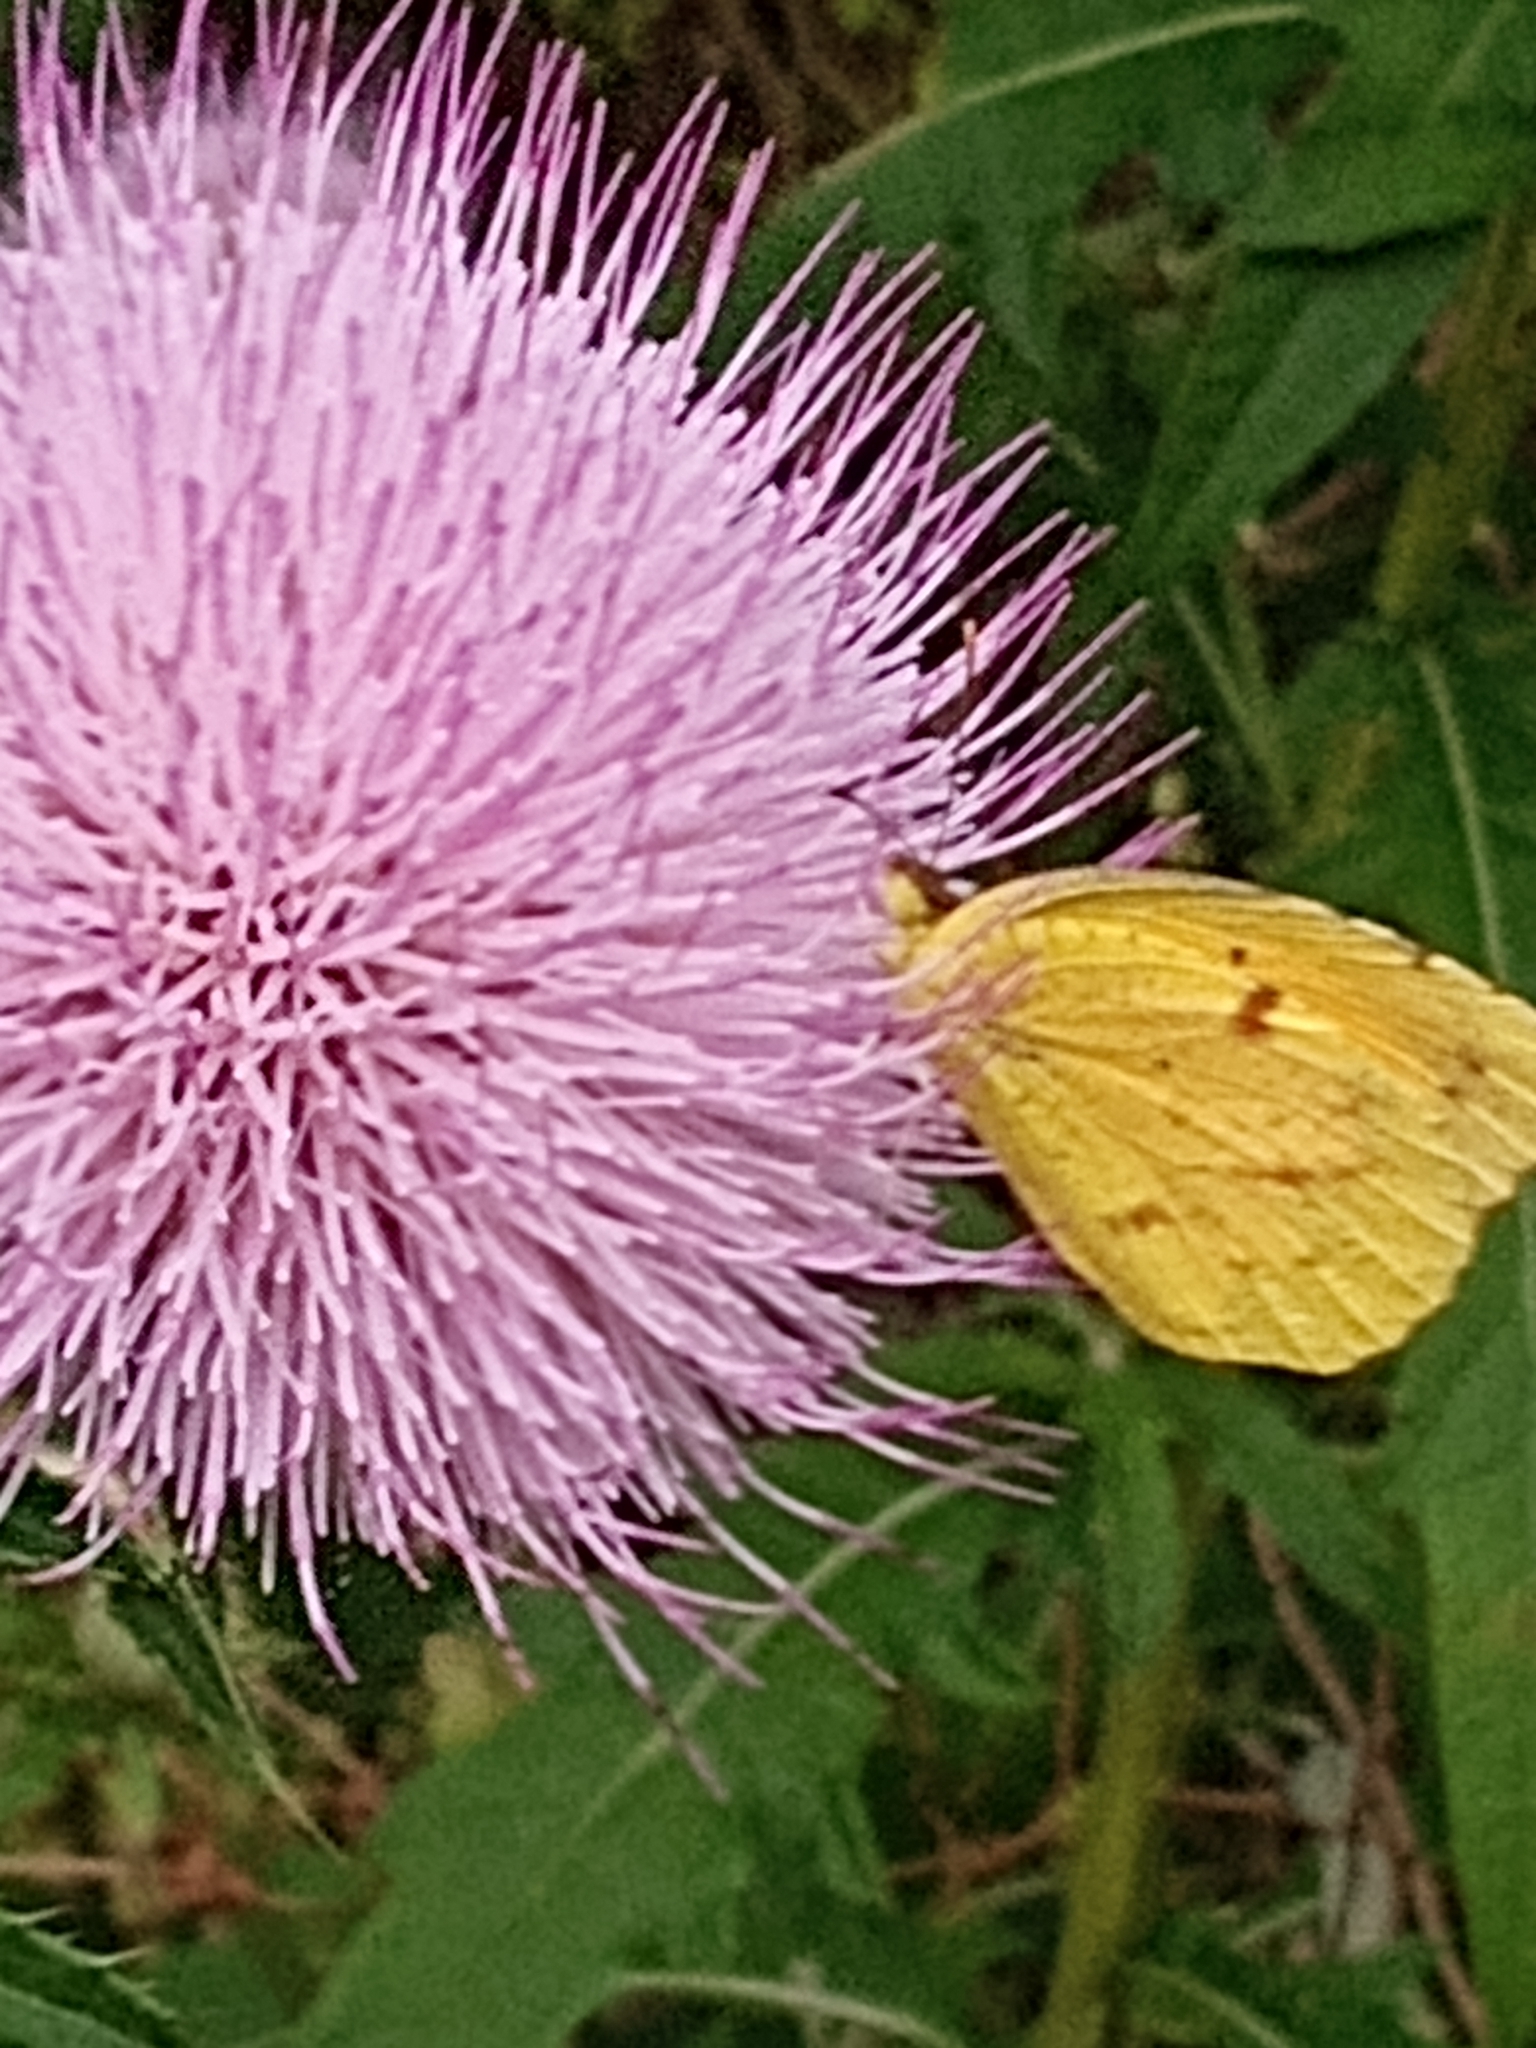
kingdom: Animalia
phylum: Arthropoda
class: Insecta
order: Lepidoptera
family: Pieridae
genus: Abaeis
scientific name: Abaeis nicippe
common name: Sleepy orange
